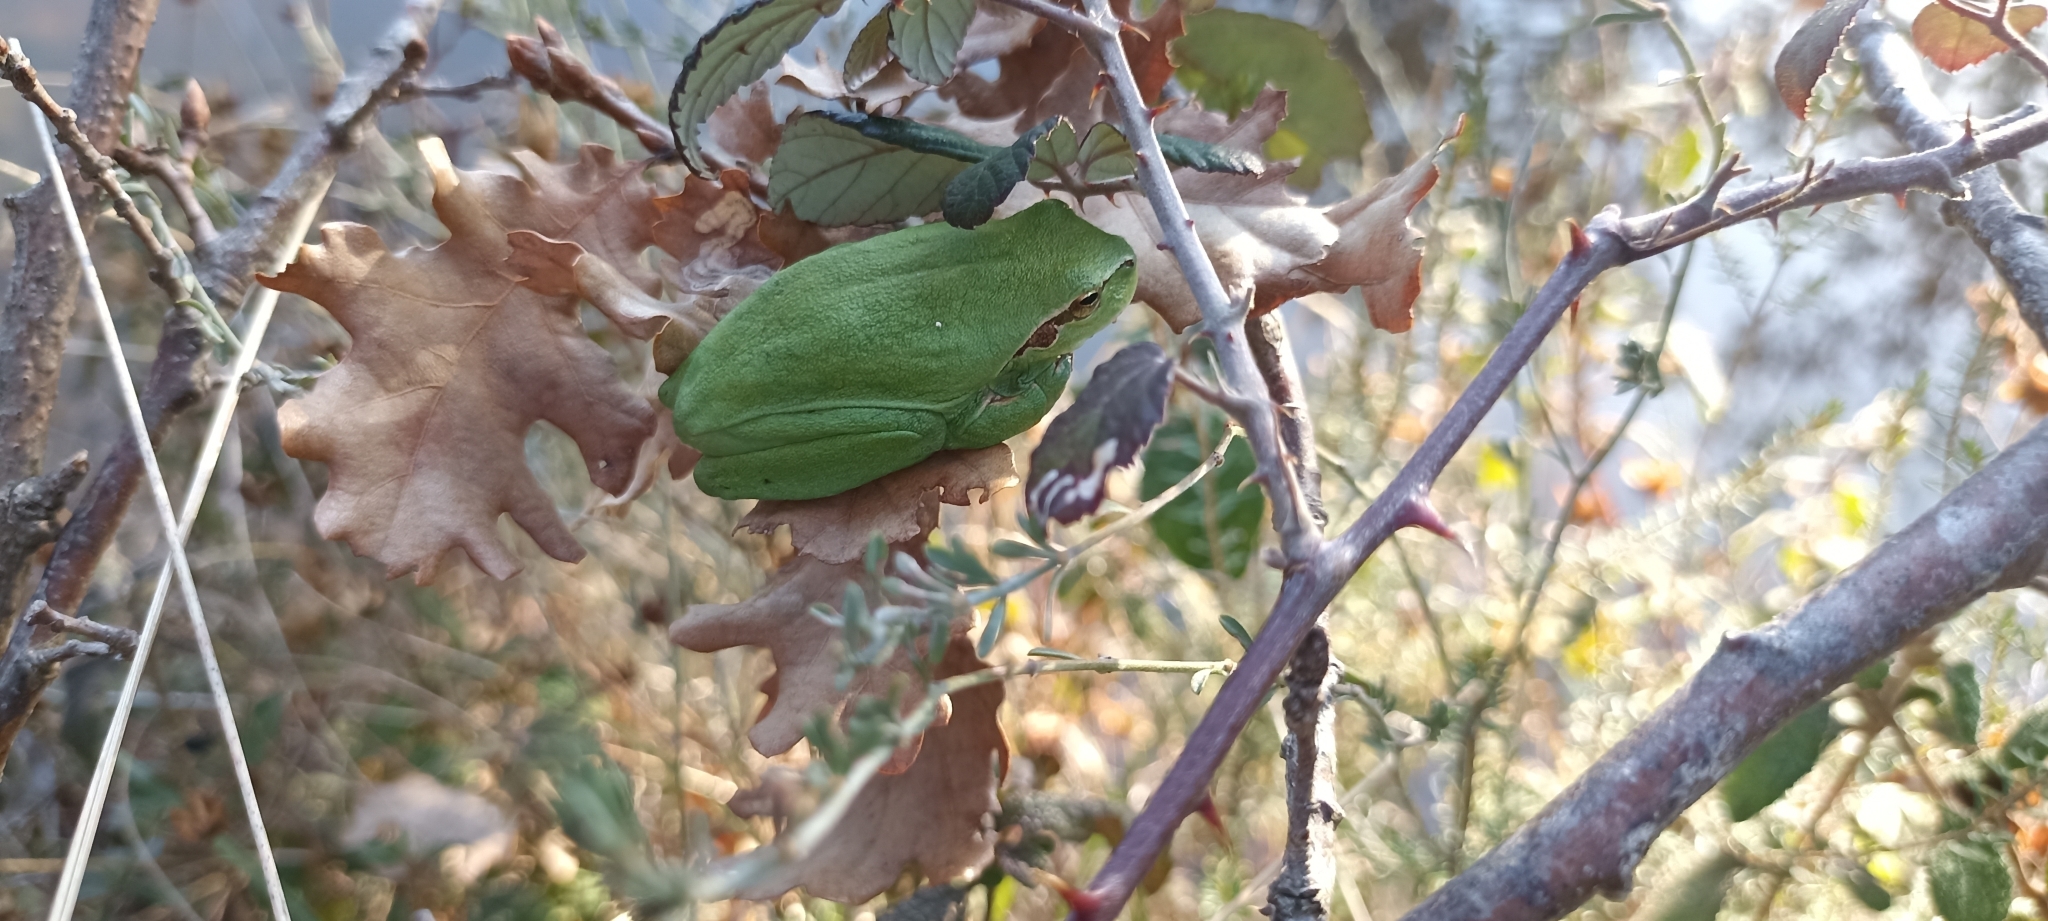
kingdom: Animalia
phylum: Chordata
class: Amphibia
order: Anura
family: Hylidae
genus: Hyla
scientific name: Hyla meridionalis
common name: Stripeless tree frog
